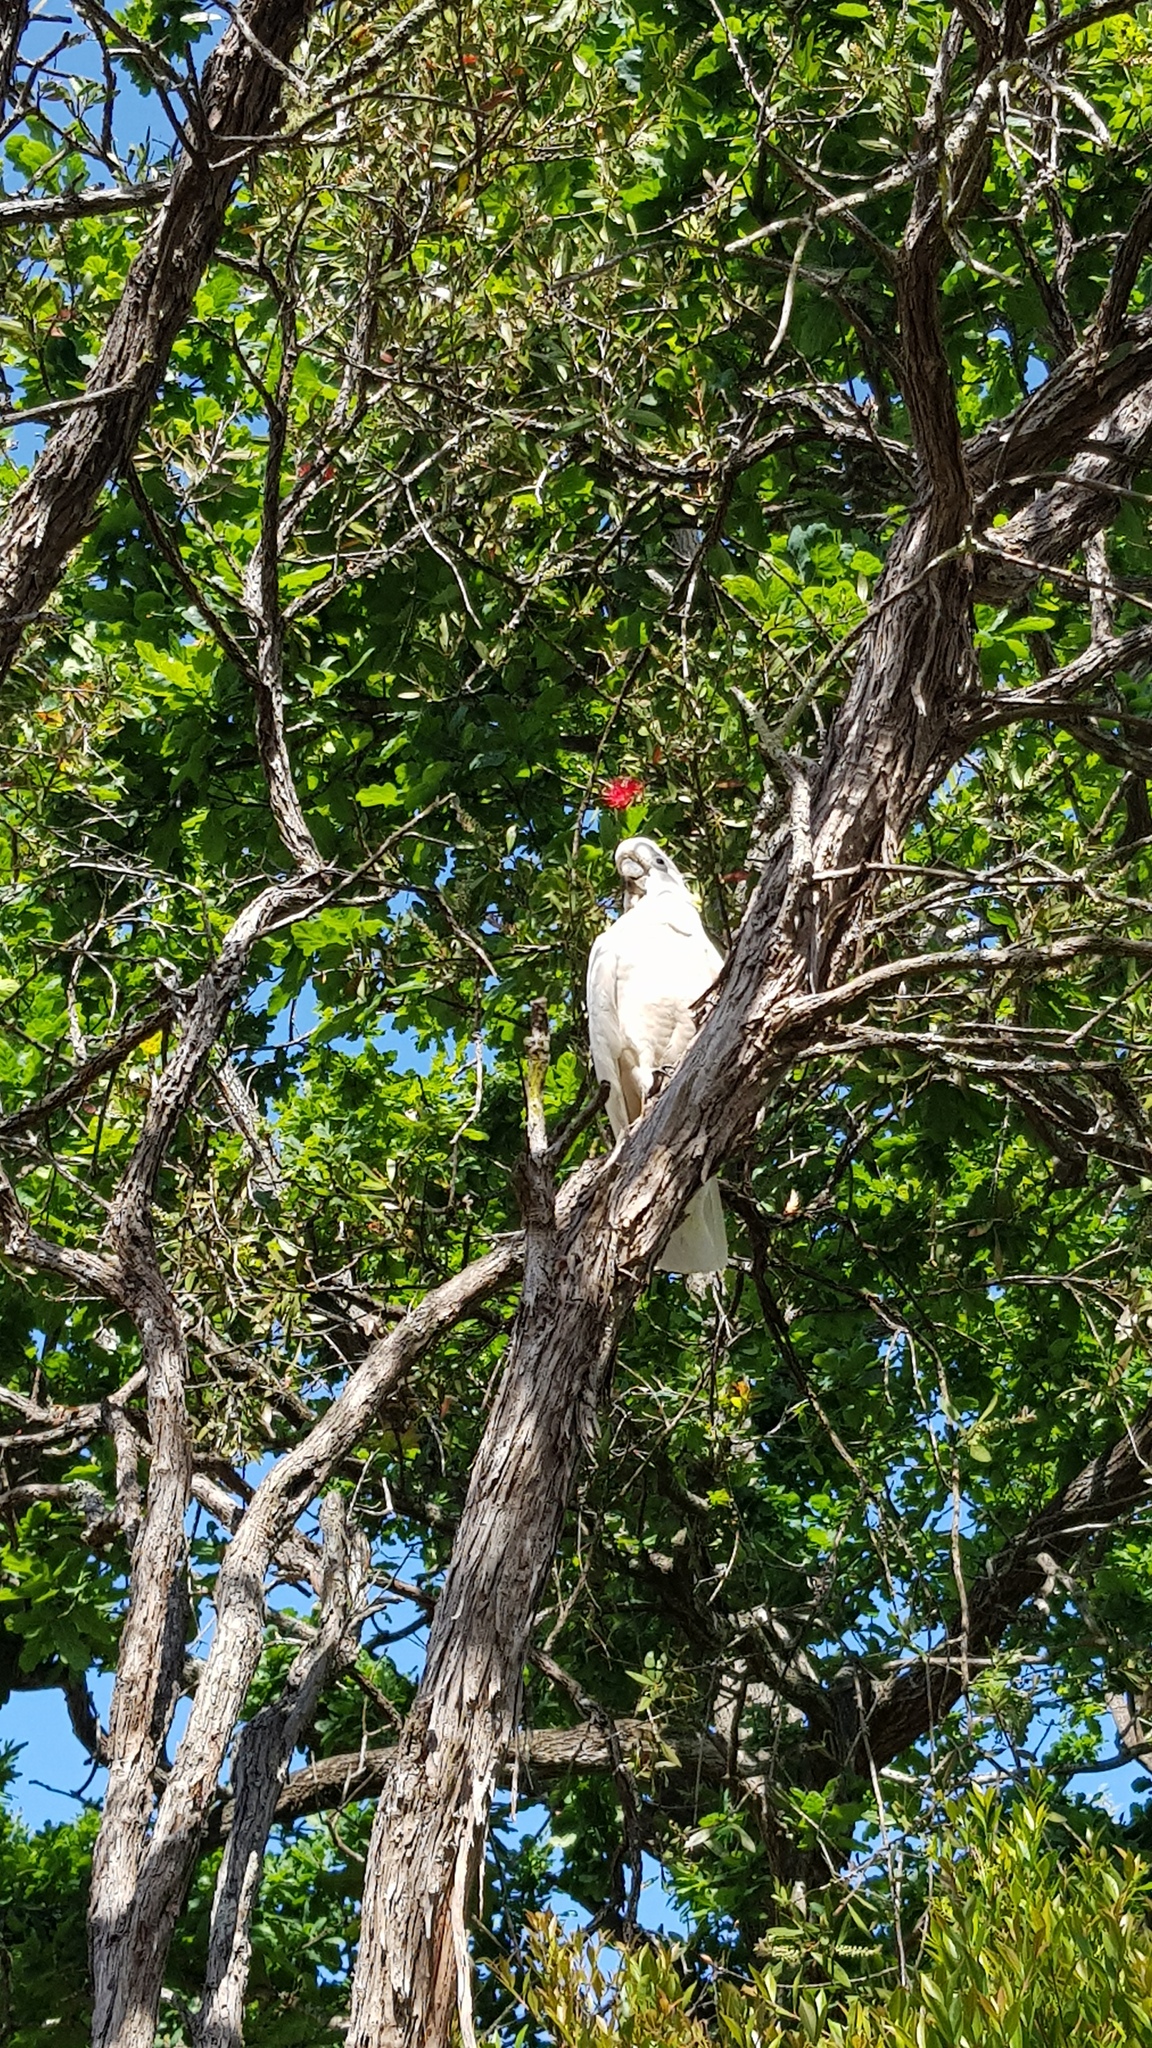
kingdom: Animalia
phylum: Chordata
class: Aves
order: Psittaciformes
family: Psittacidae
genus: Cacatua
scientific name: Cacatua galerita
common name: Sulphur-crested cockatoo
